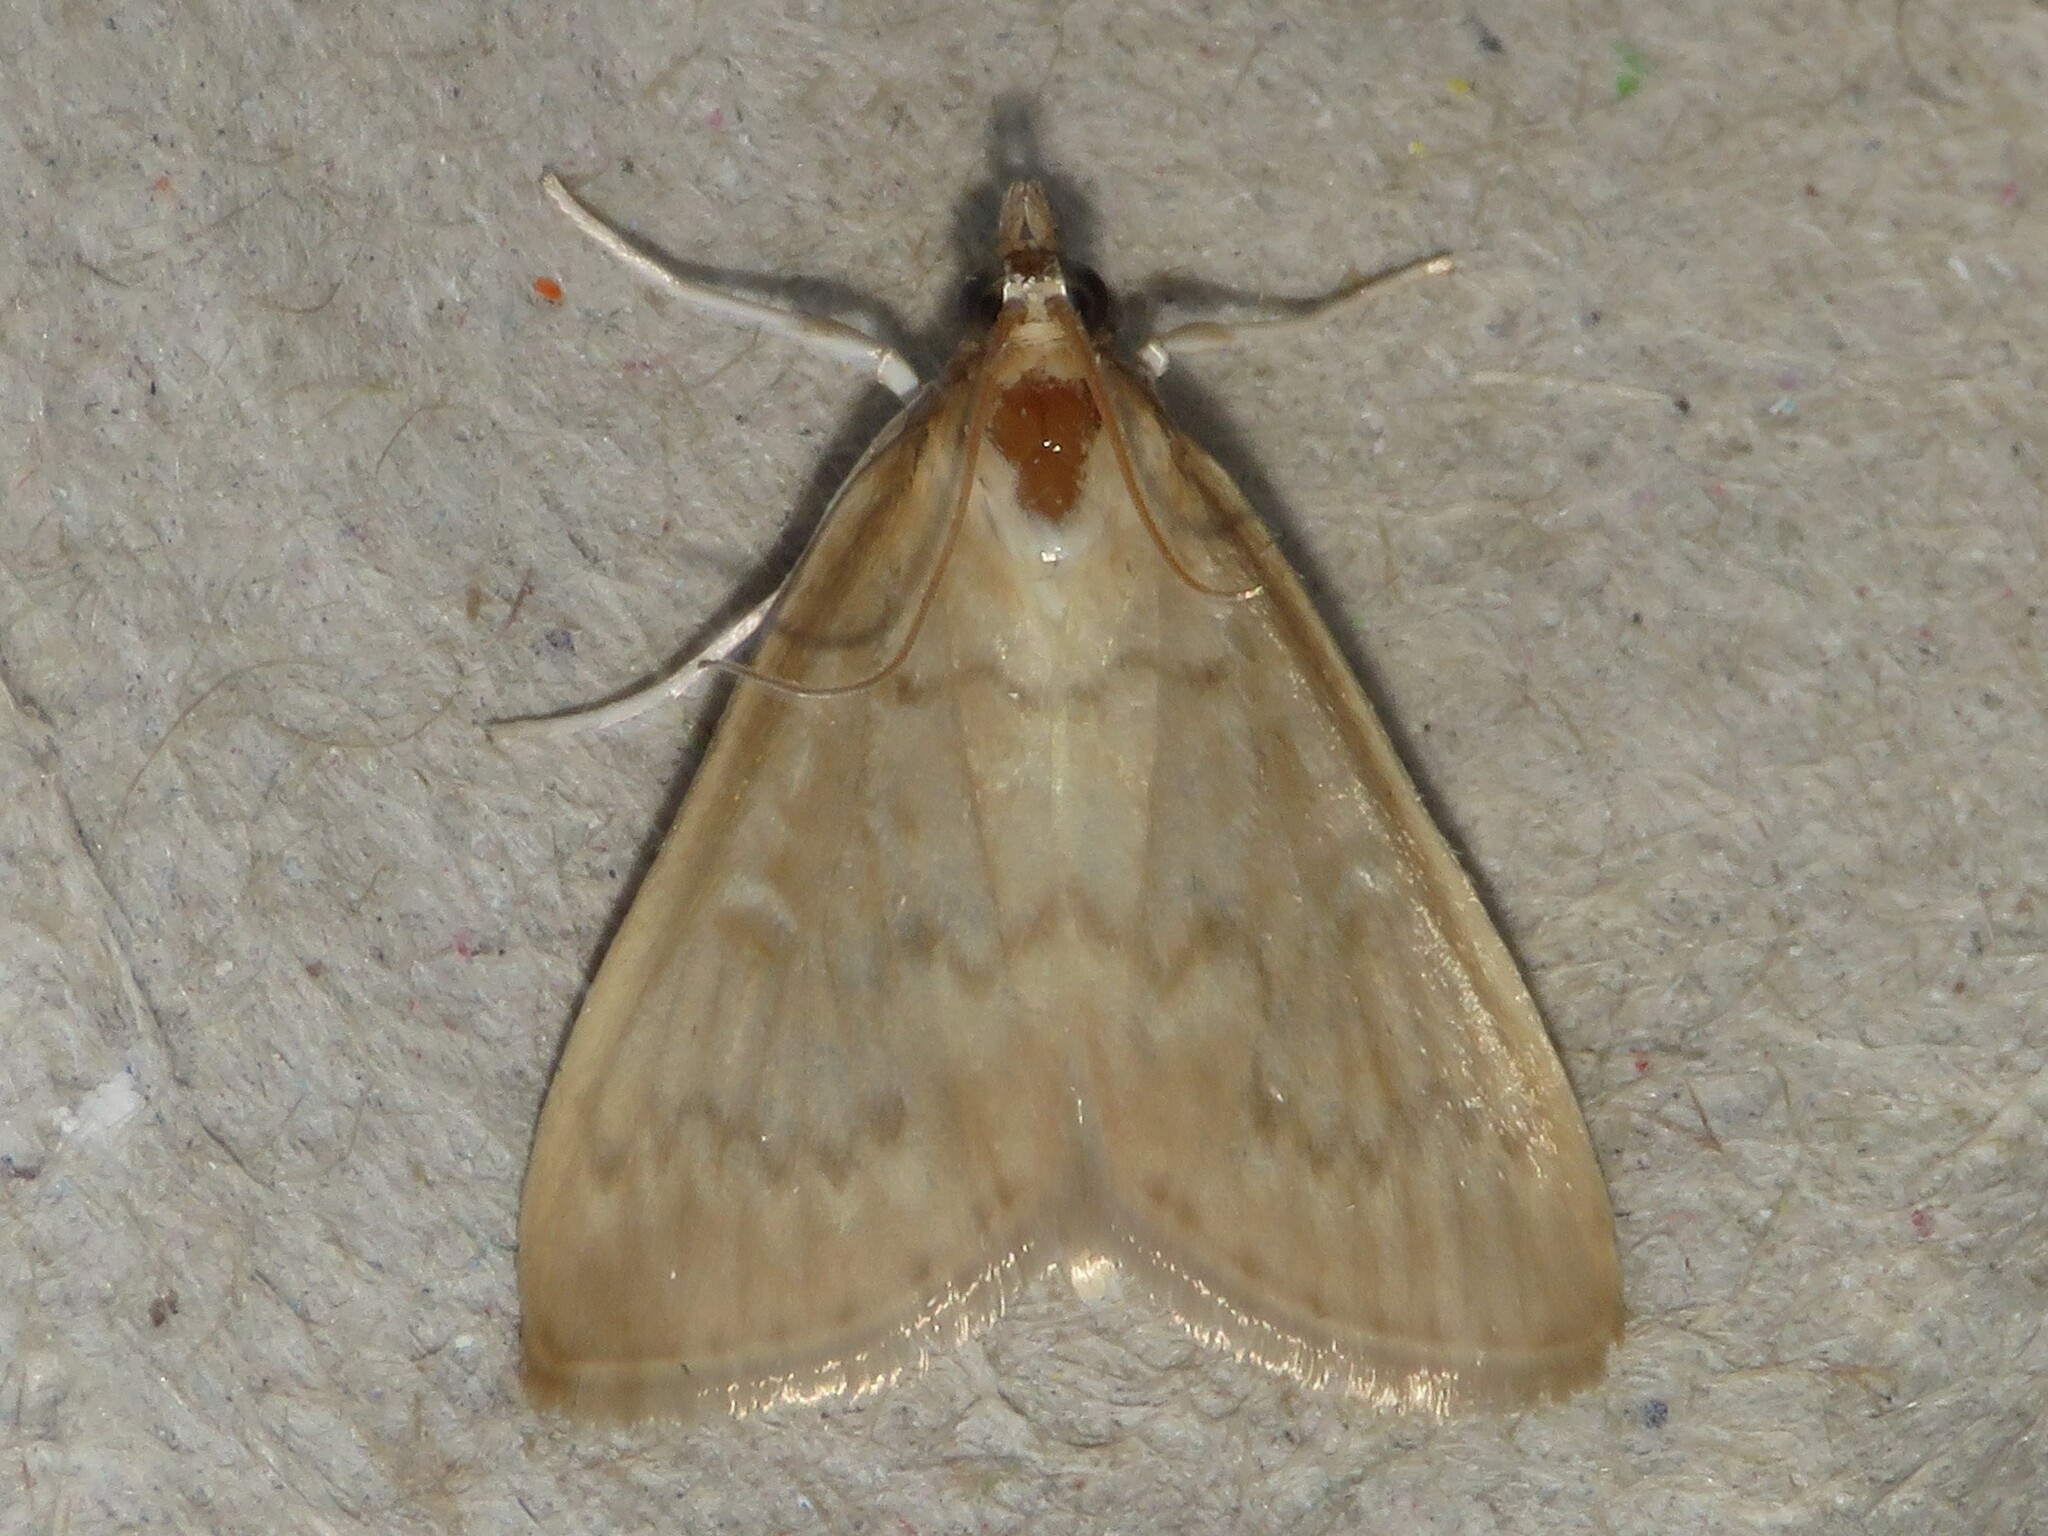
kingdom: Animalia
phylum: Arthropoda
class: Insecta
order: Lepidoptera
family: Crambidae
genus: Anania
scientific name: Anania Framinghamia helvalis
